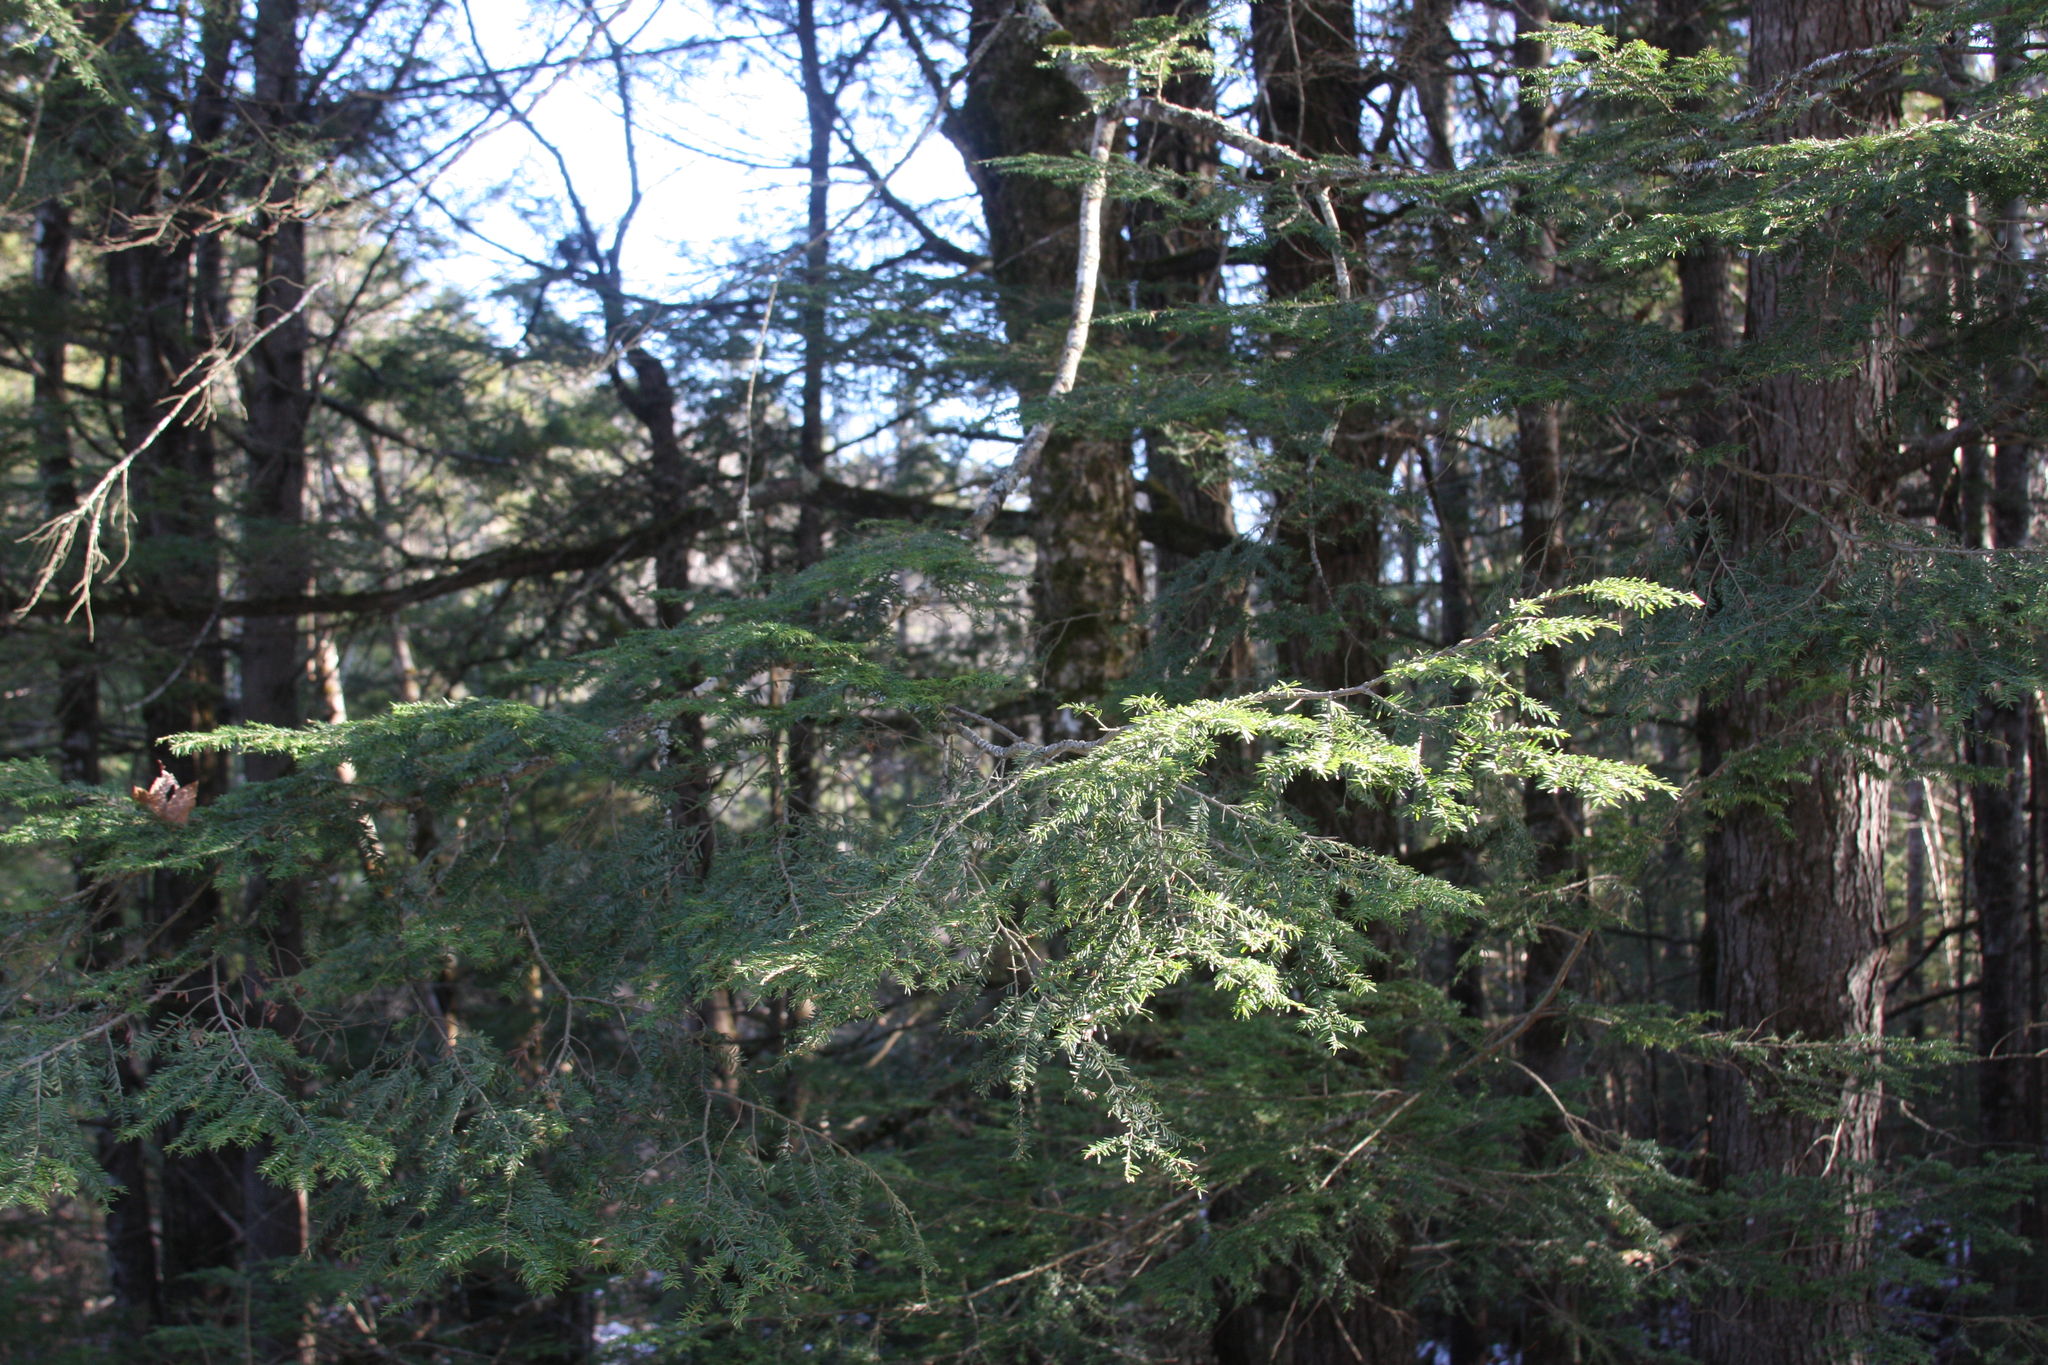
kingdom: Plantae
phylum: Tracheophyta
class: Pinopsida
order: Pinales
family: Pinaceae
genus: Tsuga
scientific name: Tsuga canadensis
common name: Eastern hemlock
